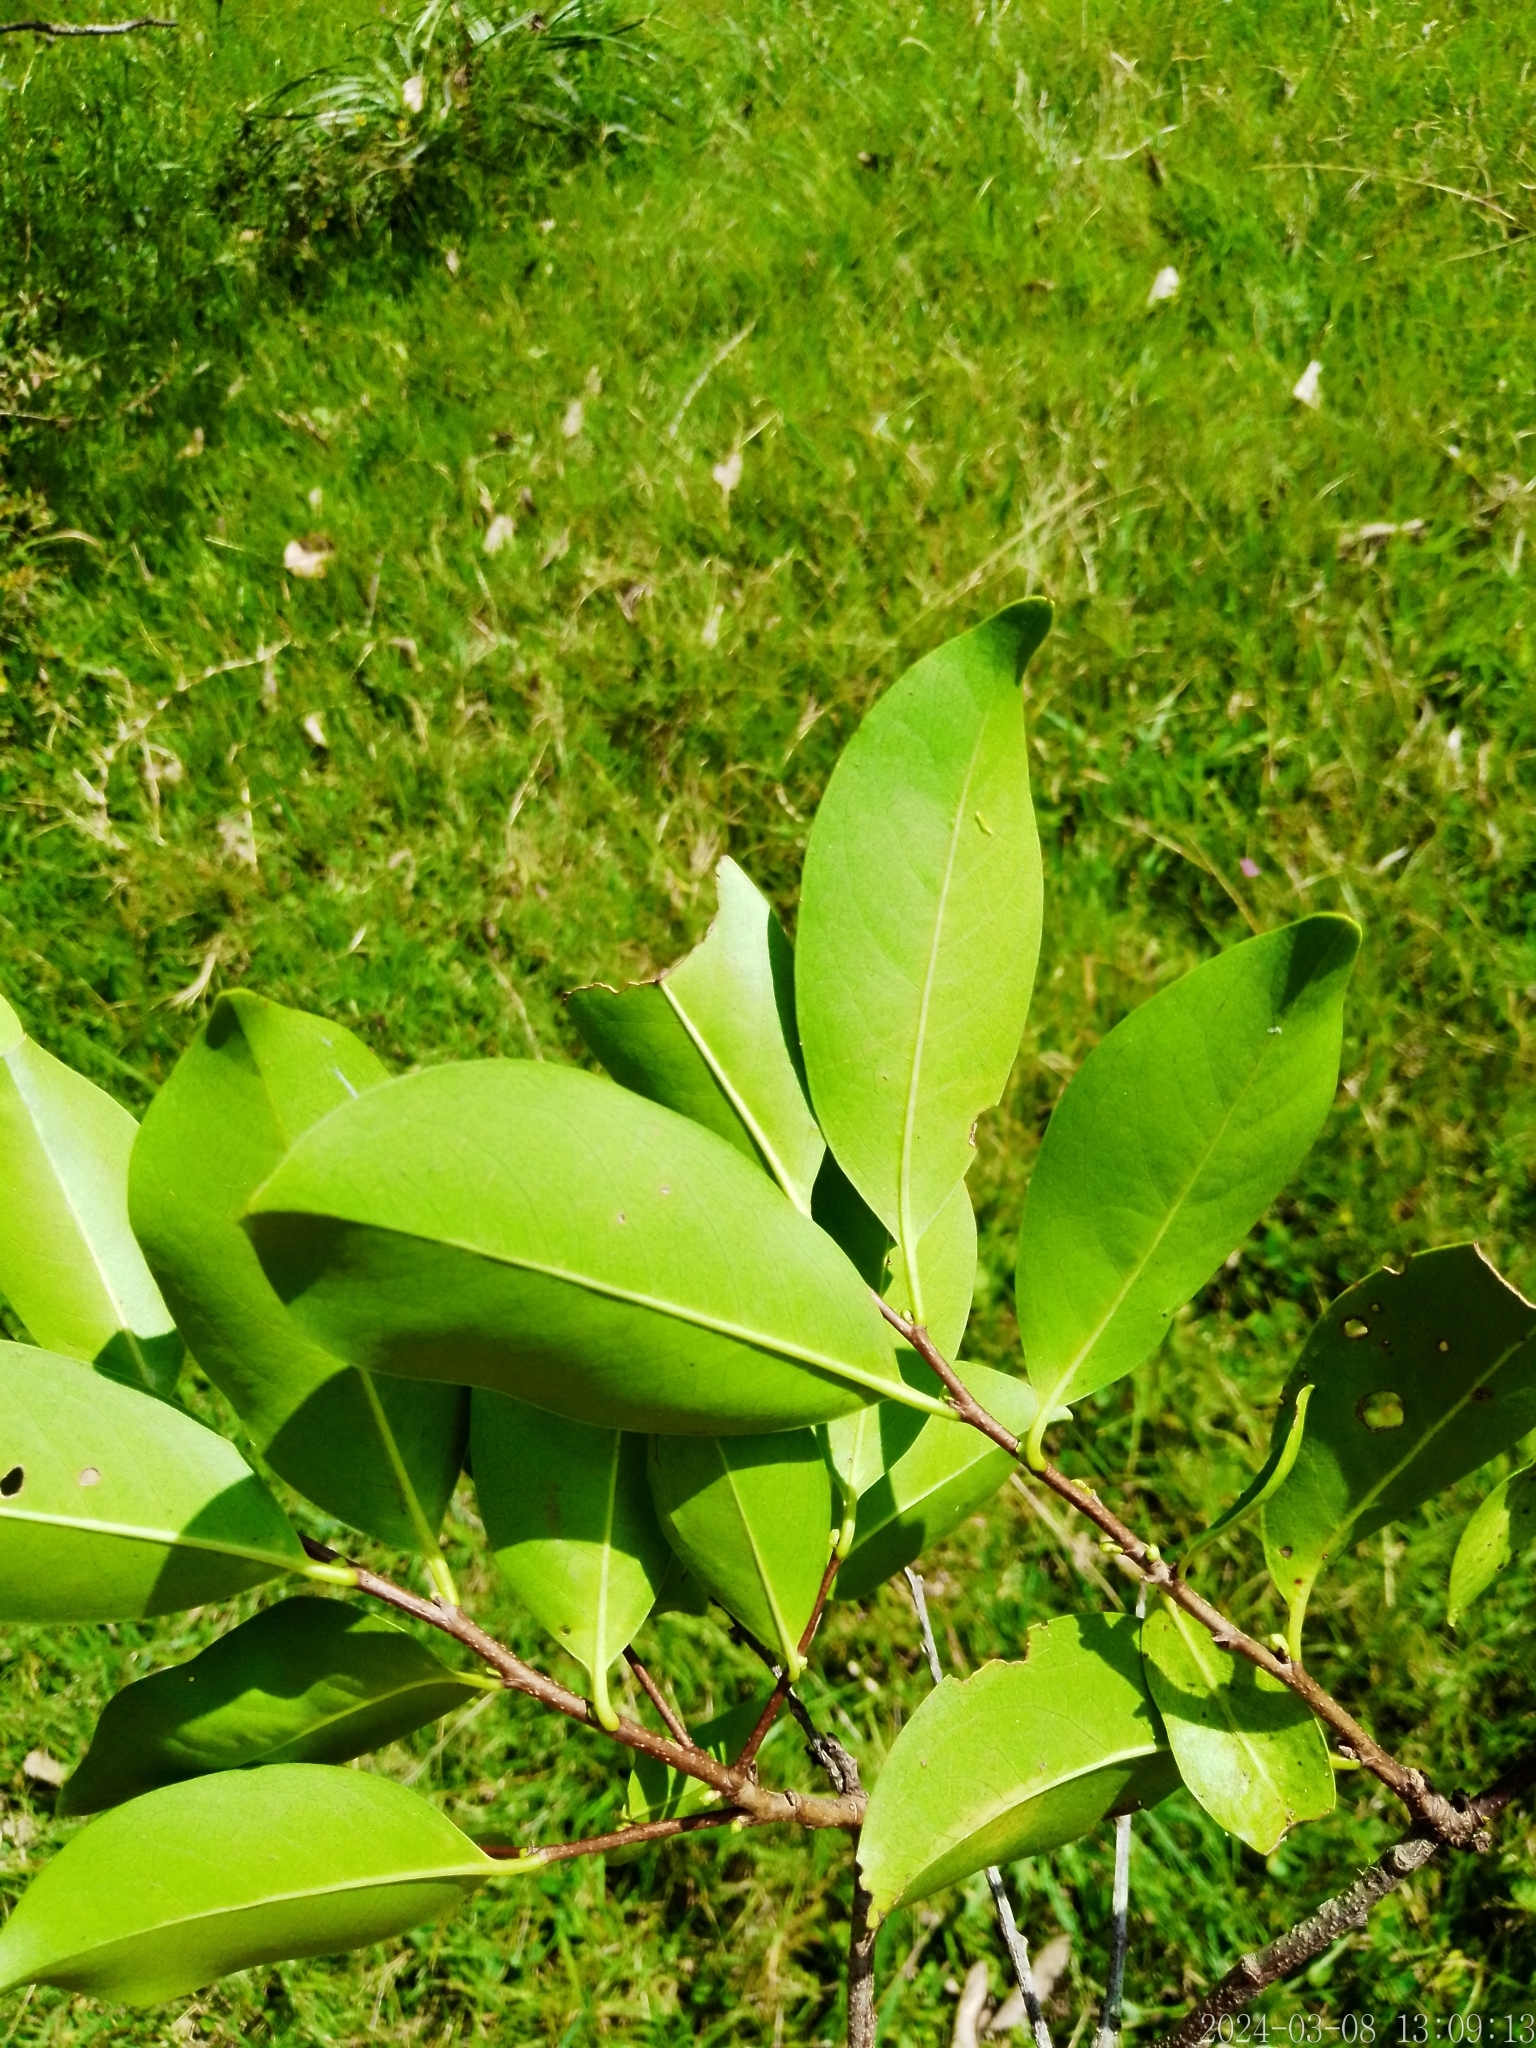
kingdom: Plantae
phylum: Tracheophyta
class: Magnoliopsida
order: Rosales
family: Rosaceae
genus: Prunus
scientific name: Prunus subcoriacea
